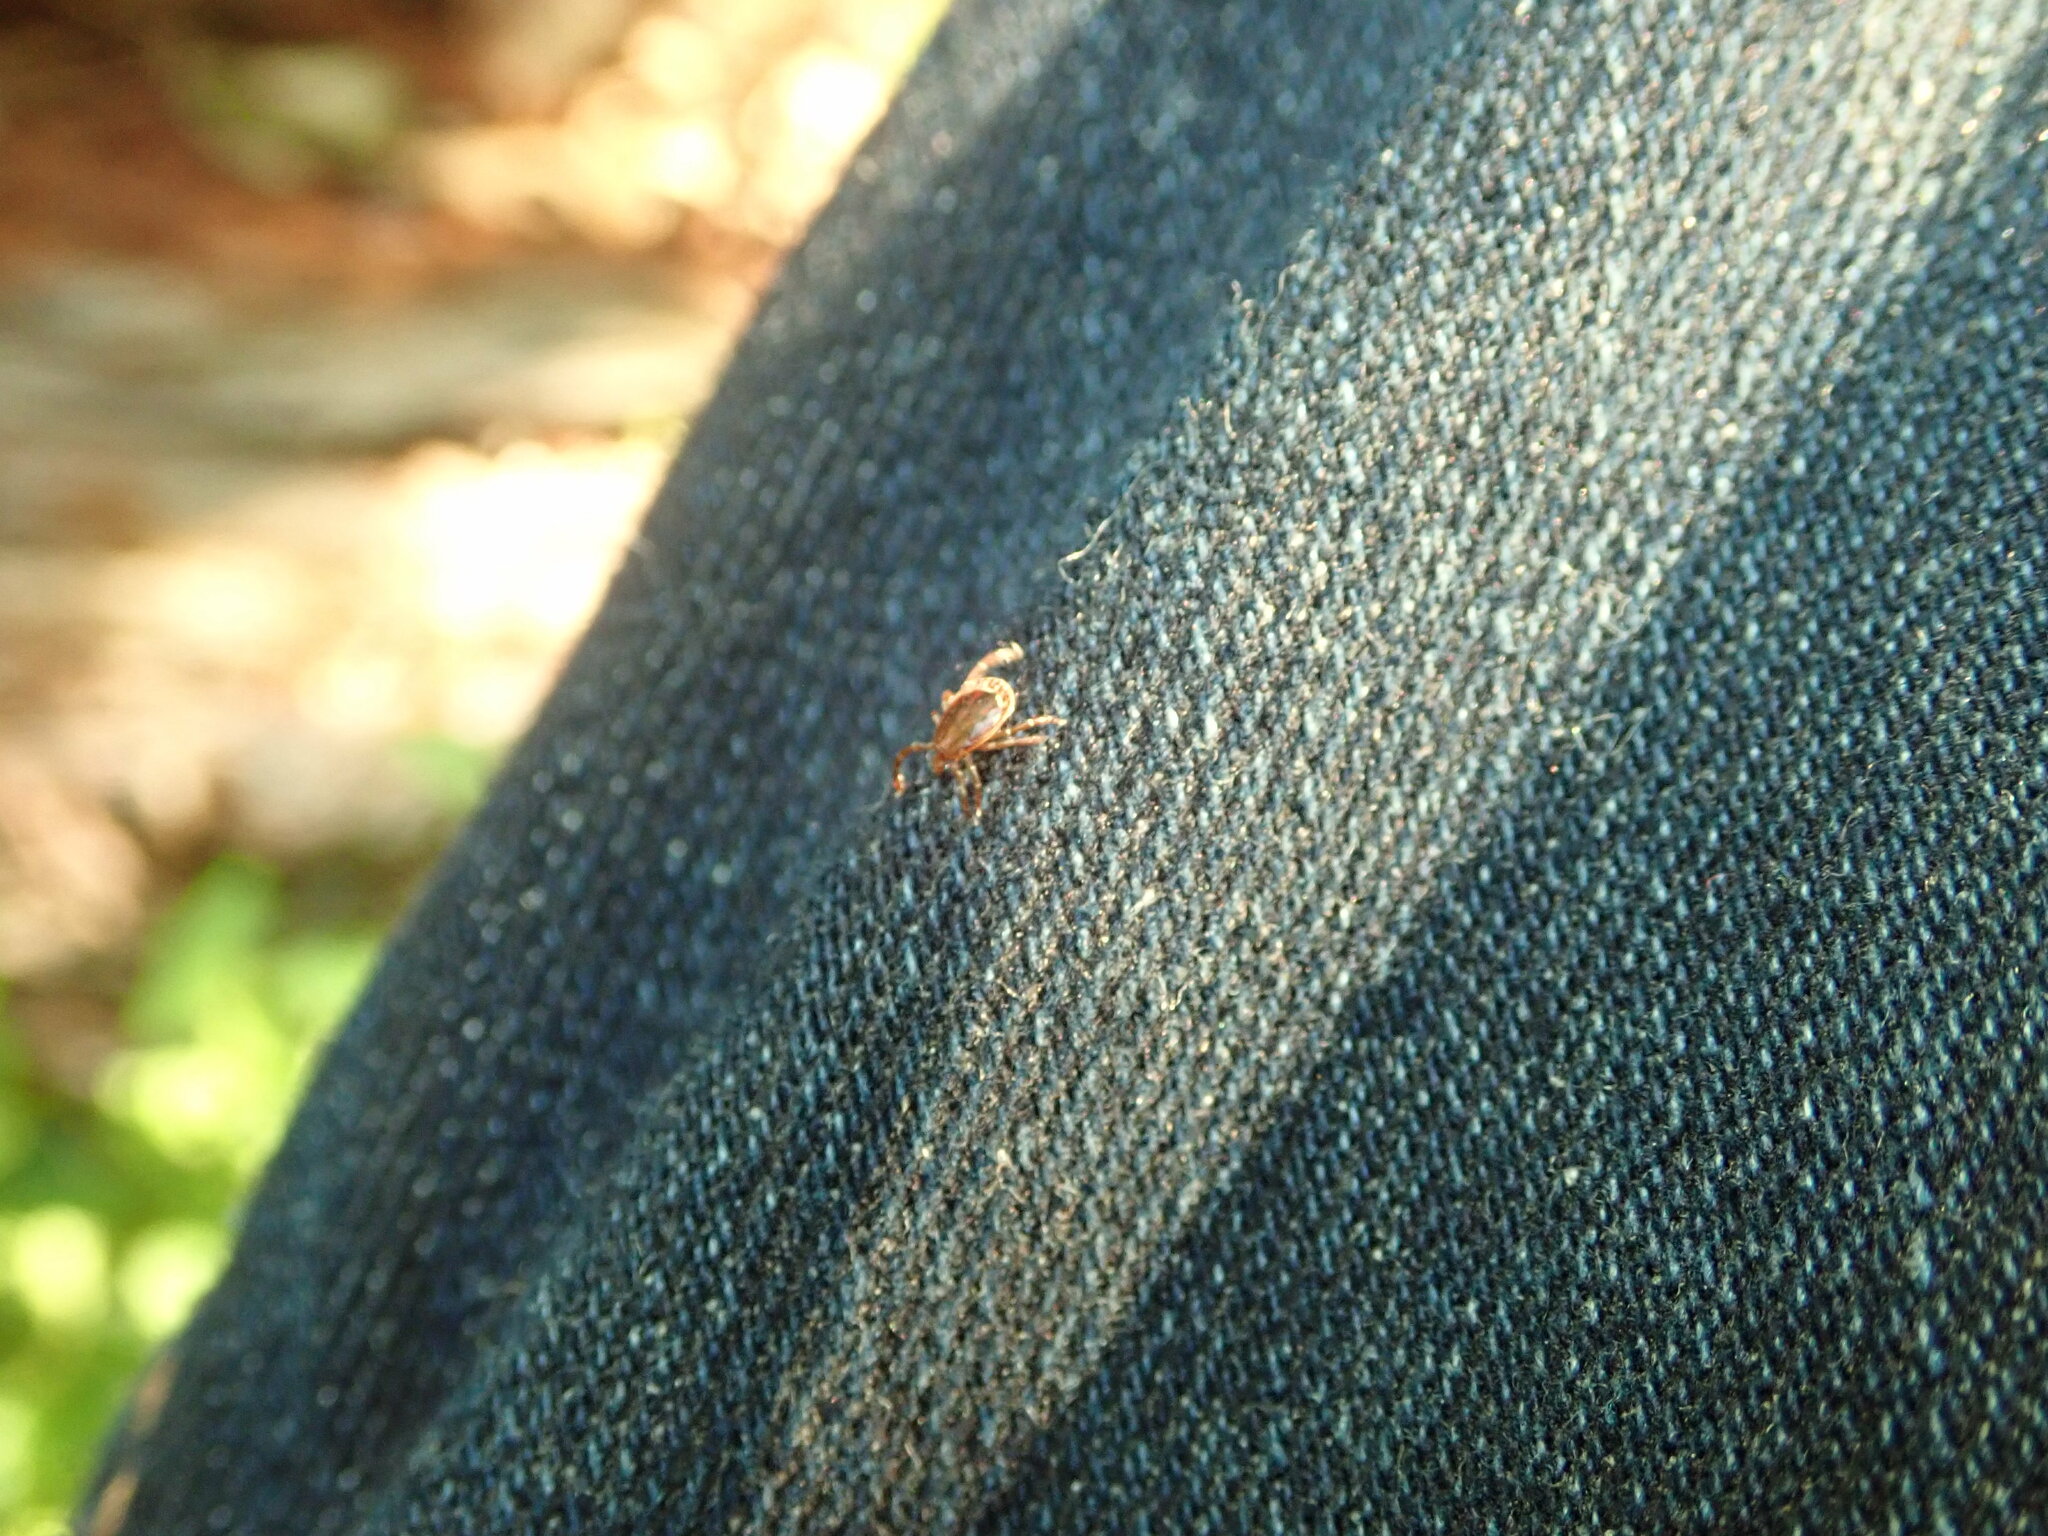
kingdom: Animalia
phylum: Arthropoda
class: Arachnida
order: Ixodida
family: Ixodidae
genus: Amblyomma
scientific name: Amblyomma americanum
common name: Lone star tick
